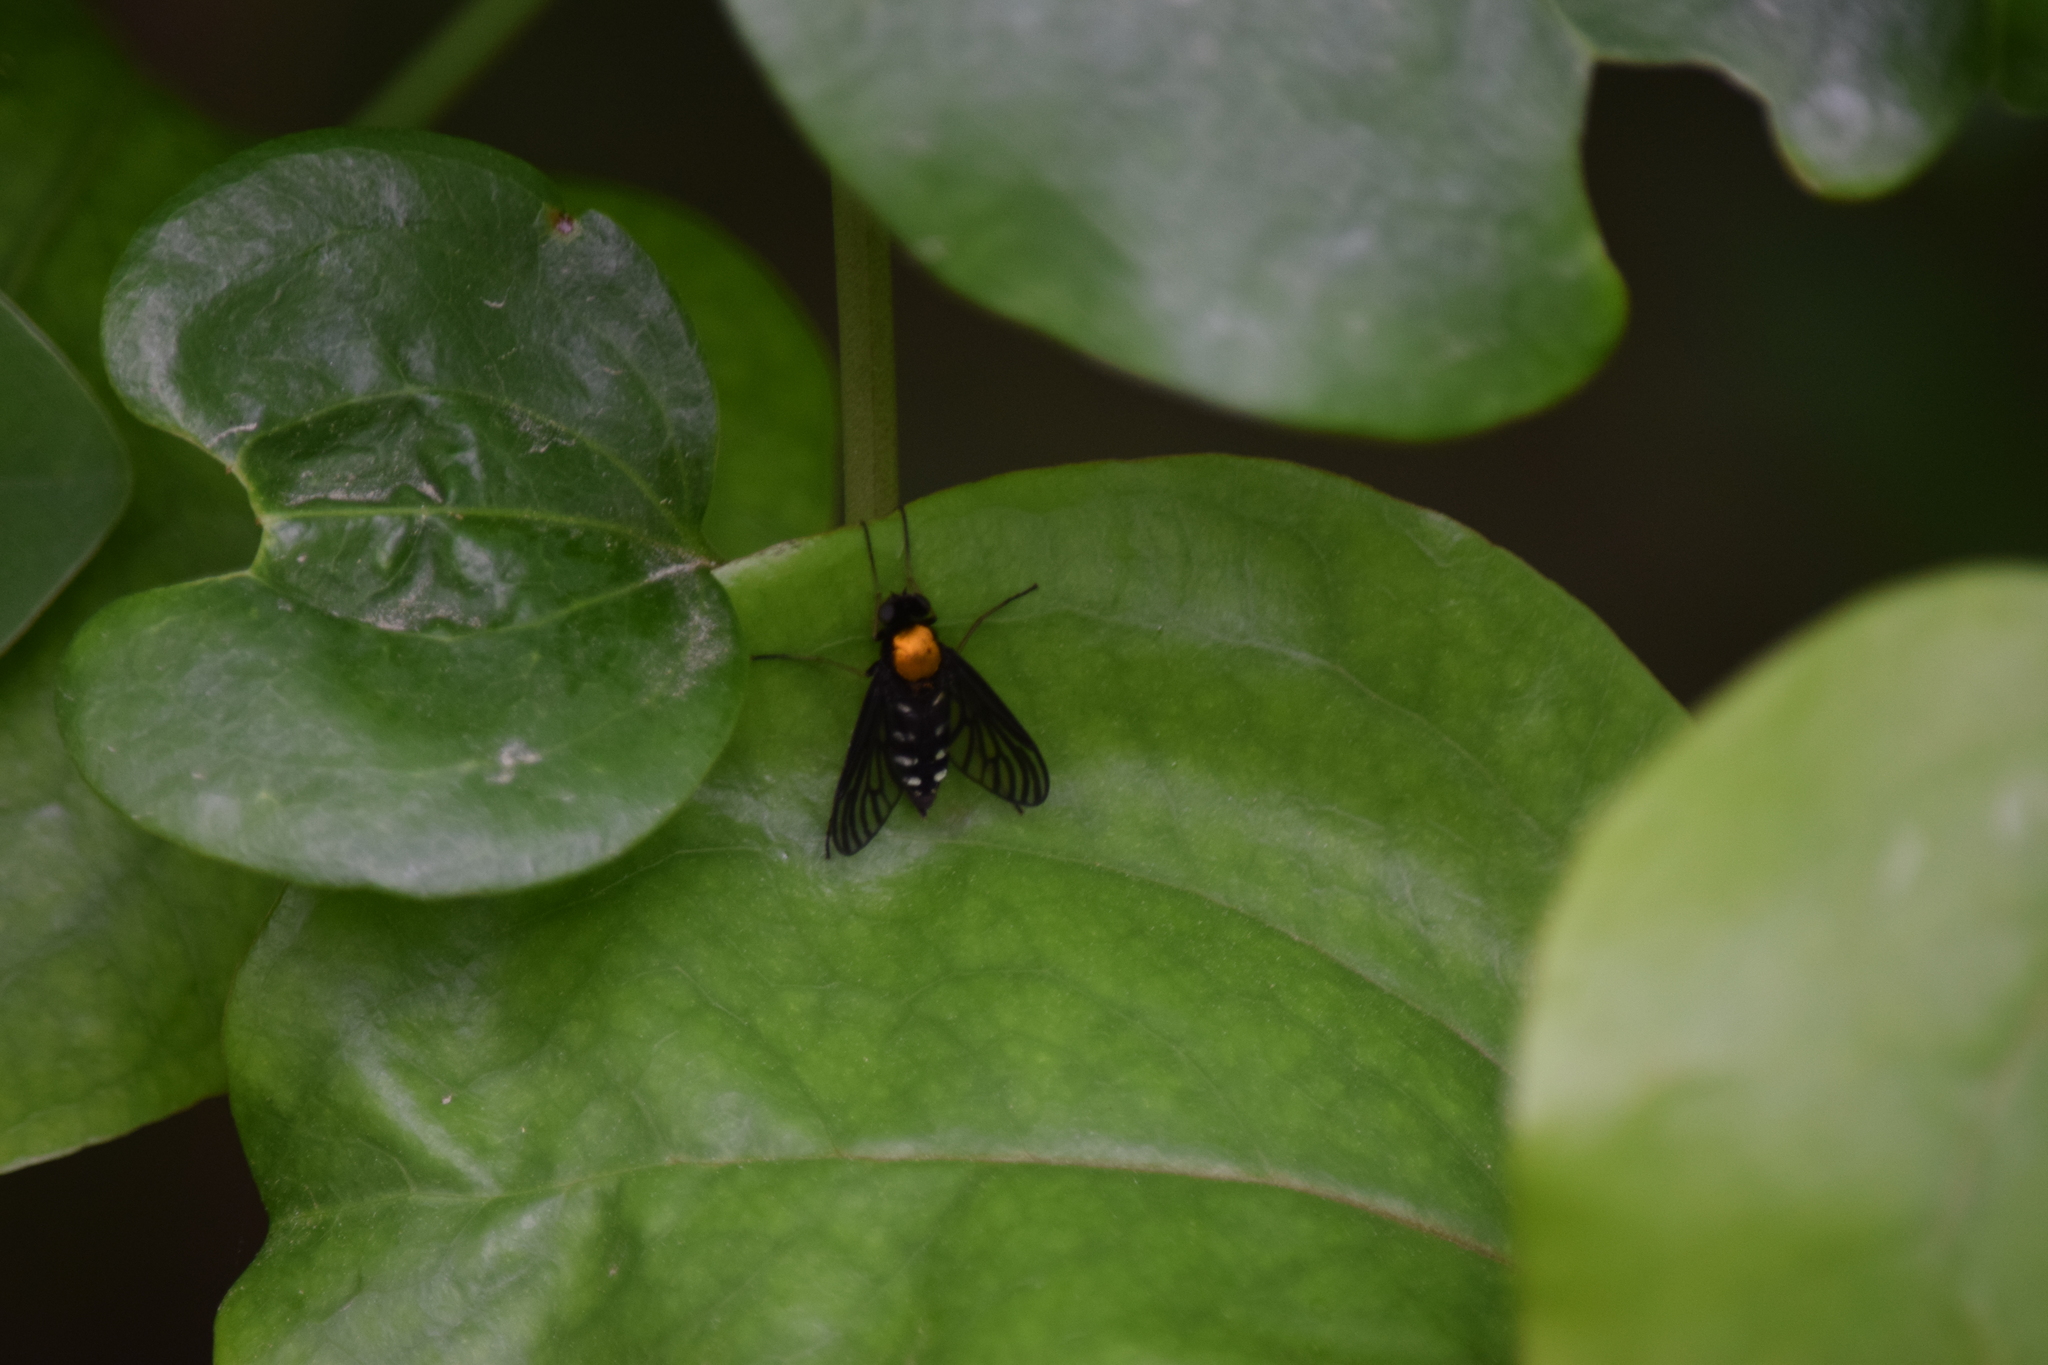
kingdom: Animalia
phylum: Arthropoda
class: Insecta
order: Diptera
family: Rhagionidae
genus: Chrysopilus
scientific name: Chrysopilus thoracicus
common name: Golden-backed snipe fly
